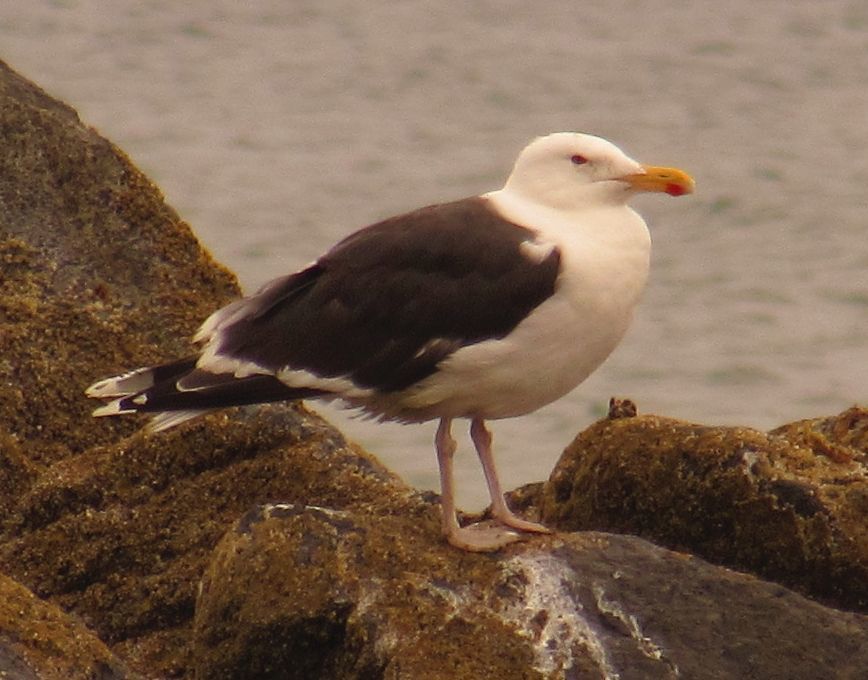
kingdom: Animalia
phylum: Chordata
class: Aves
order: Charadriiformes
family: Laridae
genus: Larus
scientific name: Larus marinus
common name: Great black-backed gull
